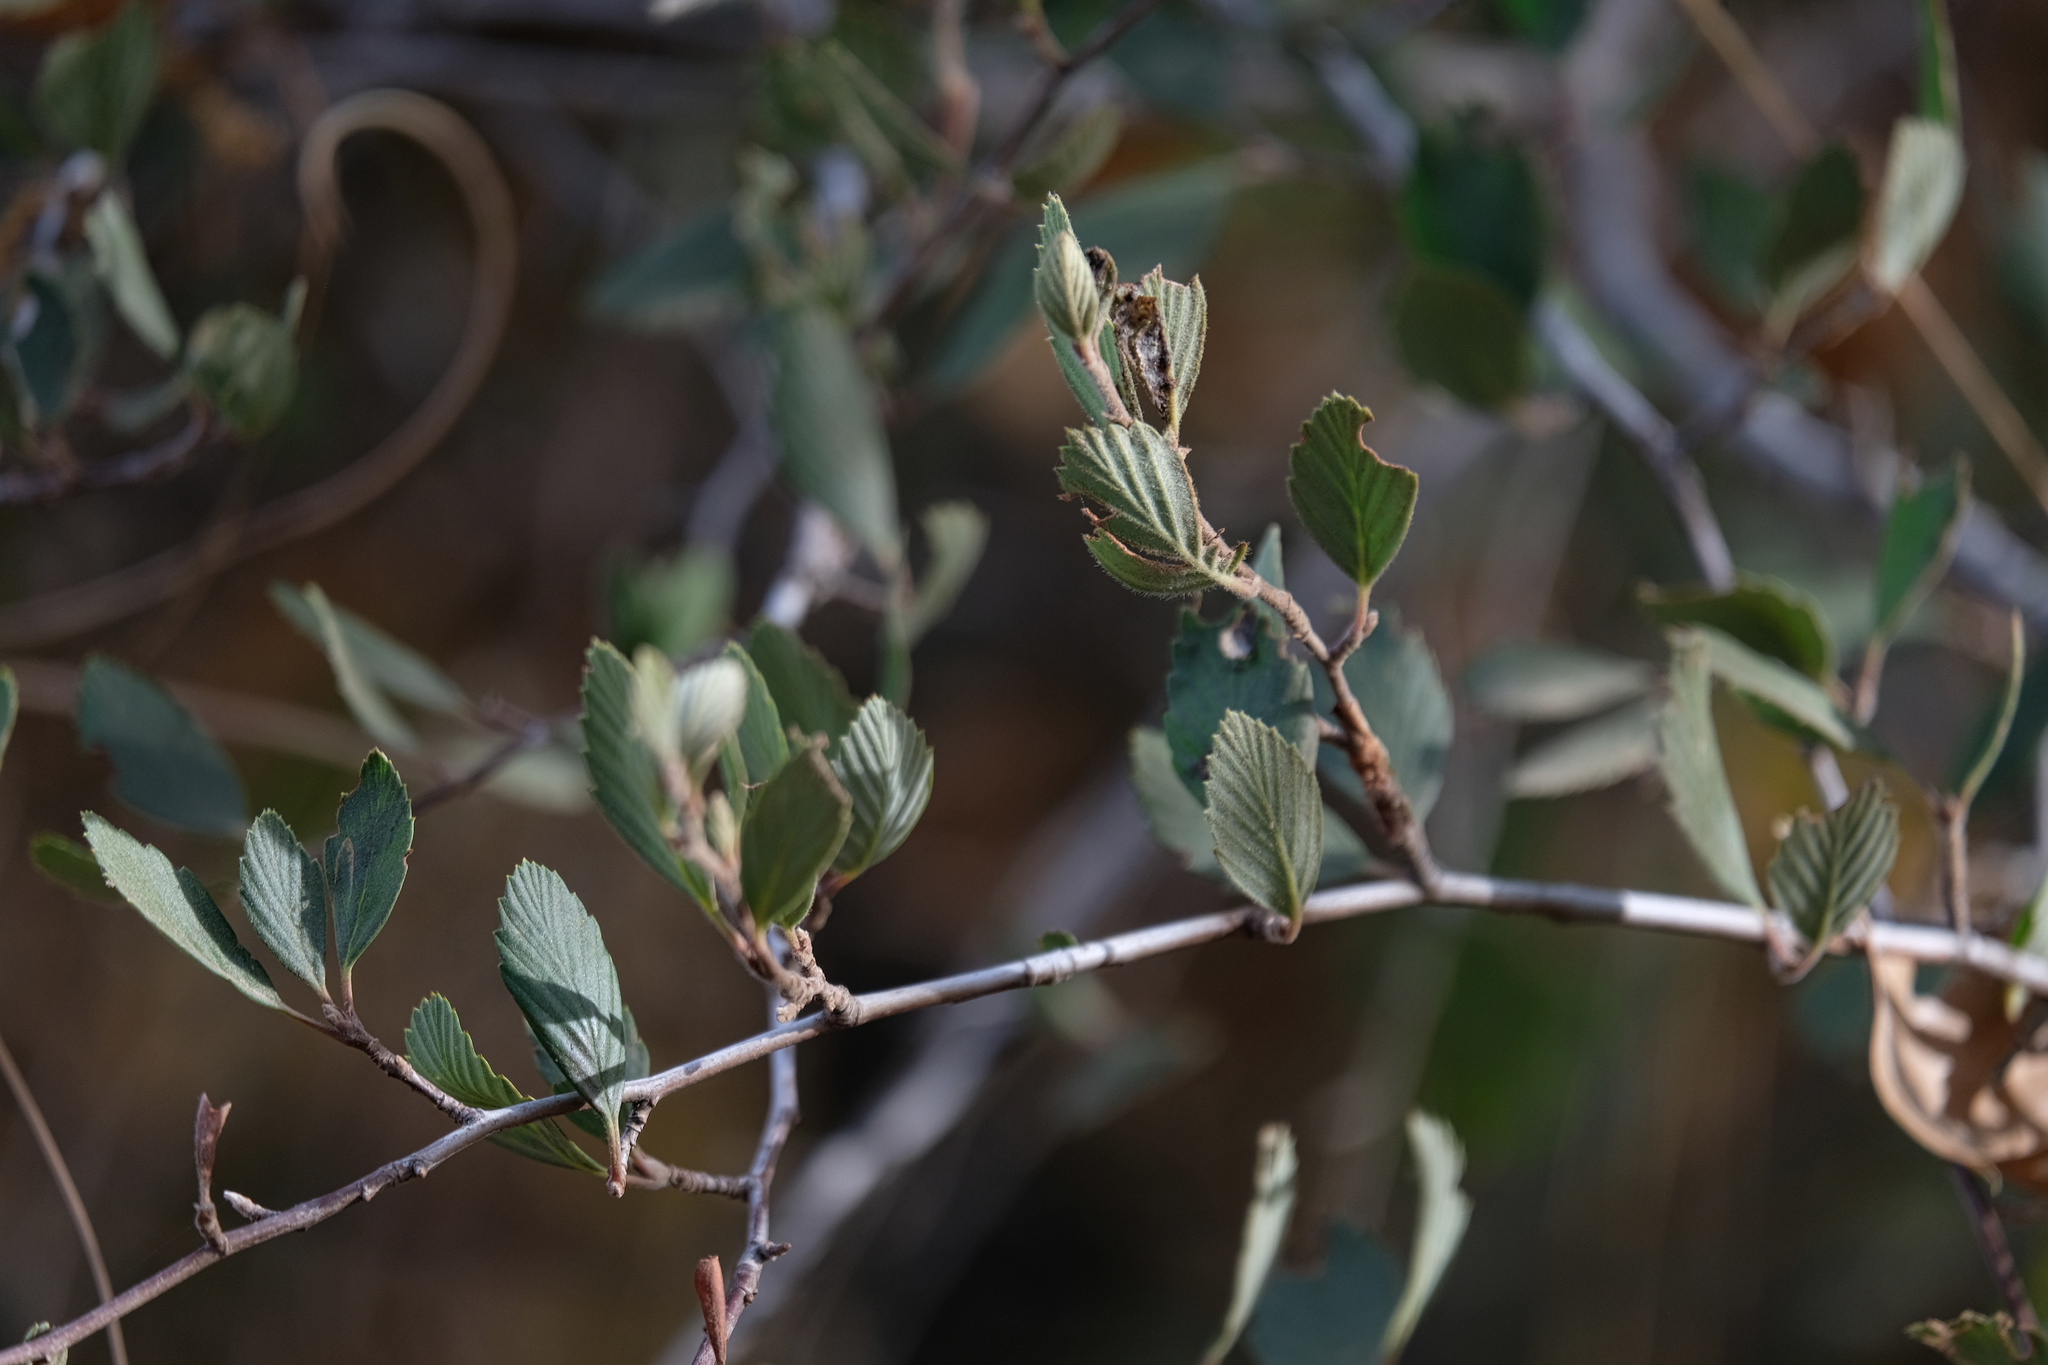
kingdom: Plantae
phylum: Tracheophyta
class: Magnoliopsida
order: Rosales
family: Rosaceae
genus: Cercocarpus
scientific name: Cercocarpus betuloides
